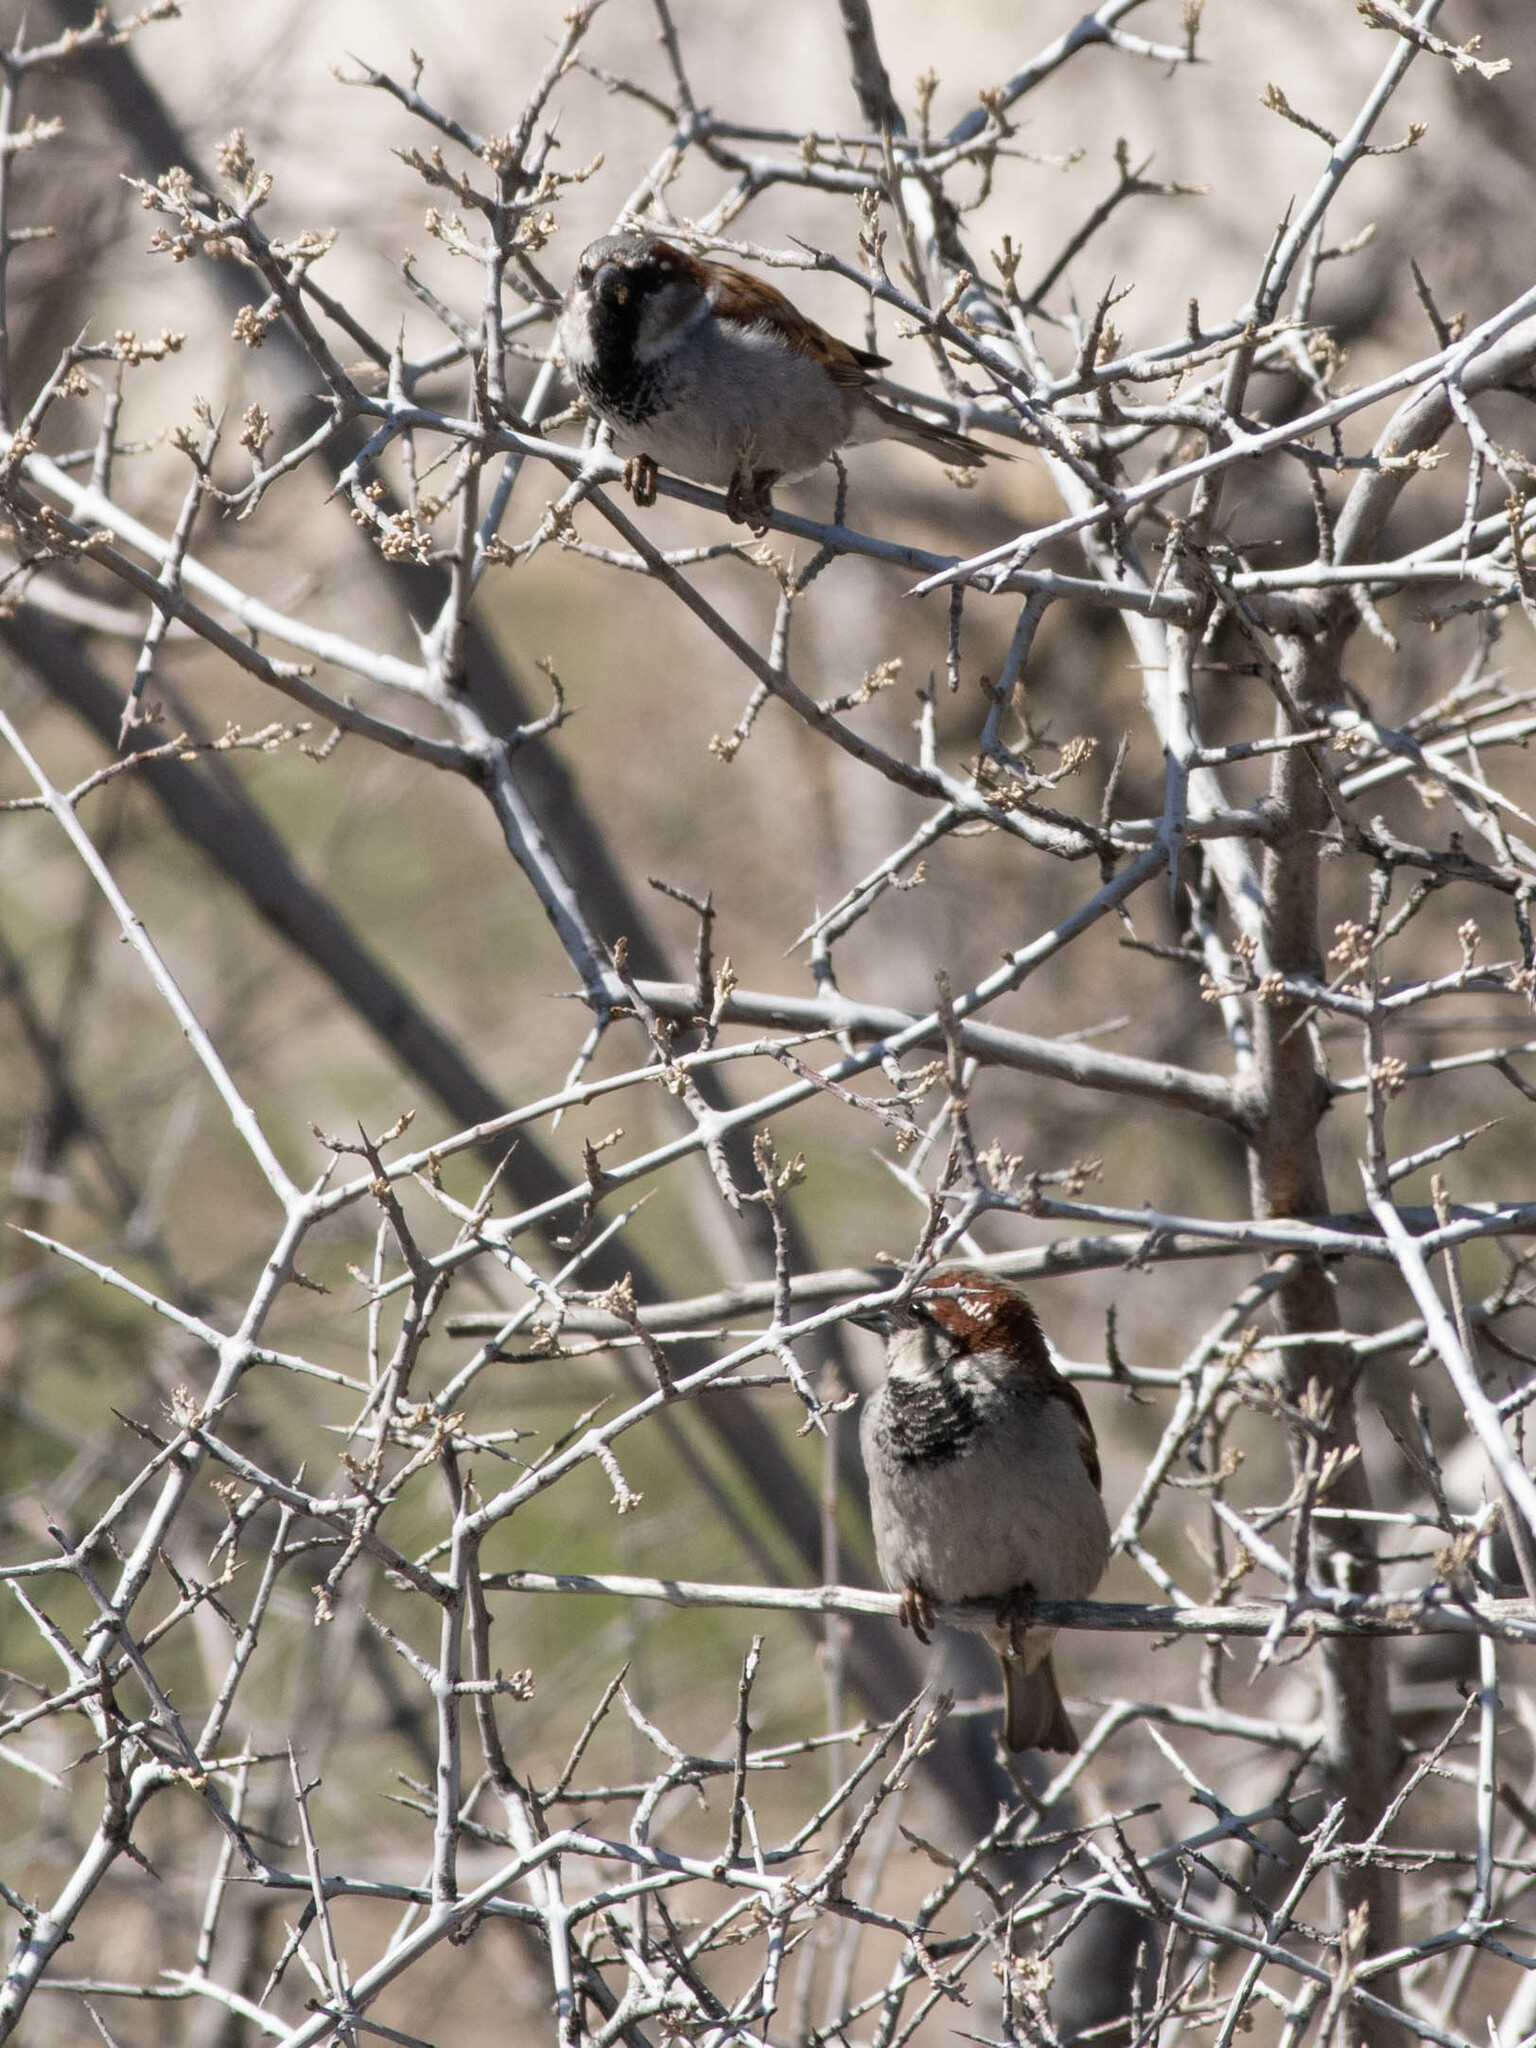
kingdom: Animalia
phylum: Chordata
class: Aves
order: Passeriformes
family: Passeridae
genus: Passer
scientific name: Passer domesticus
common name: House sparrow
